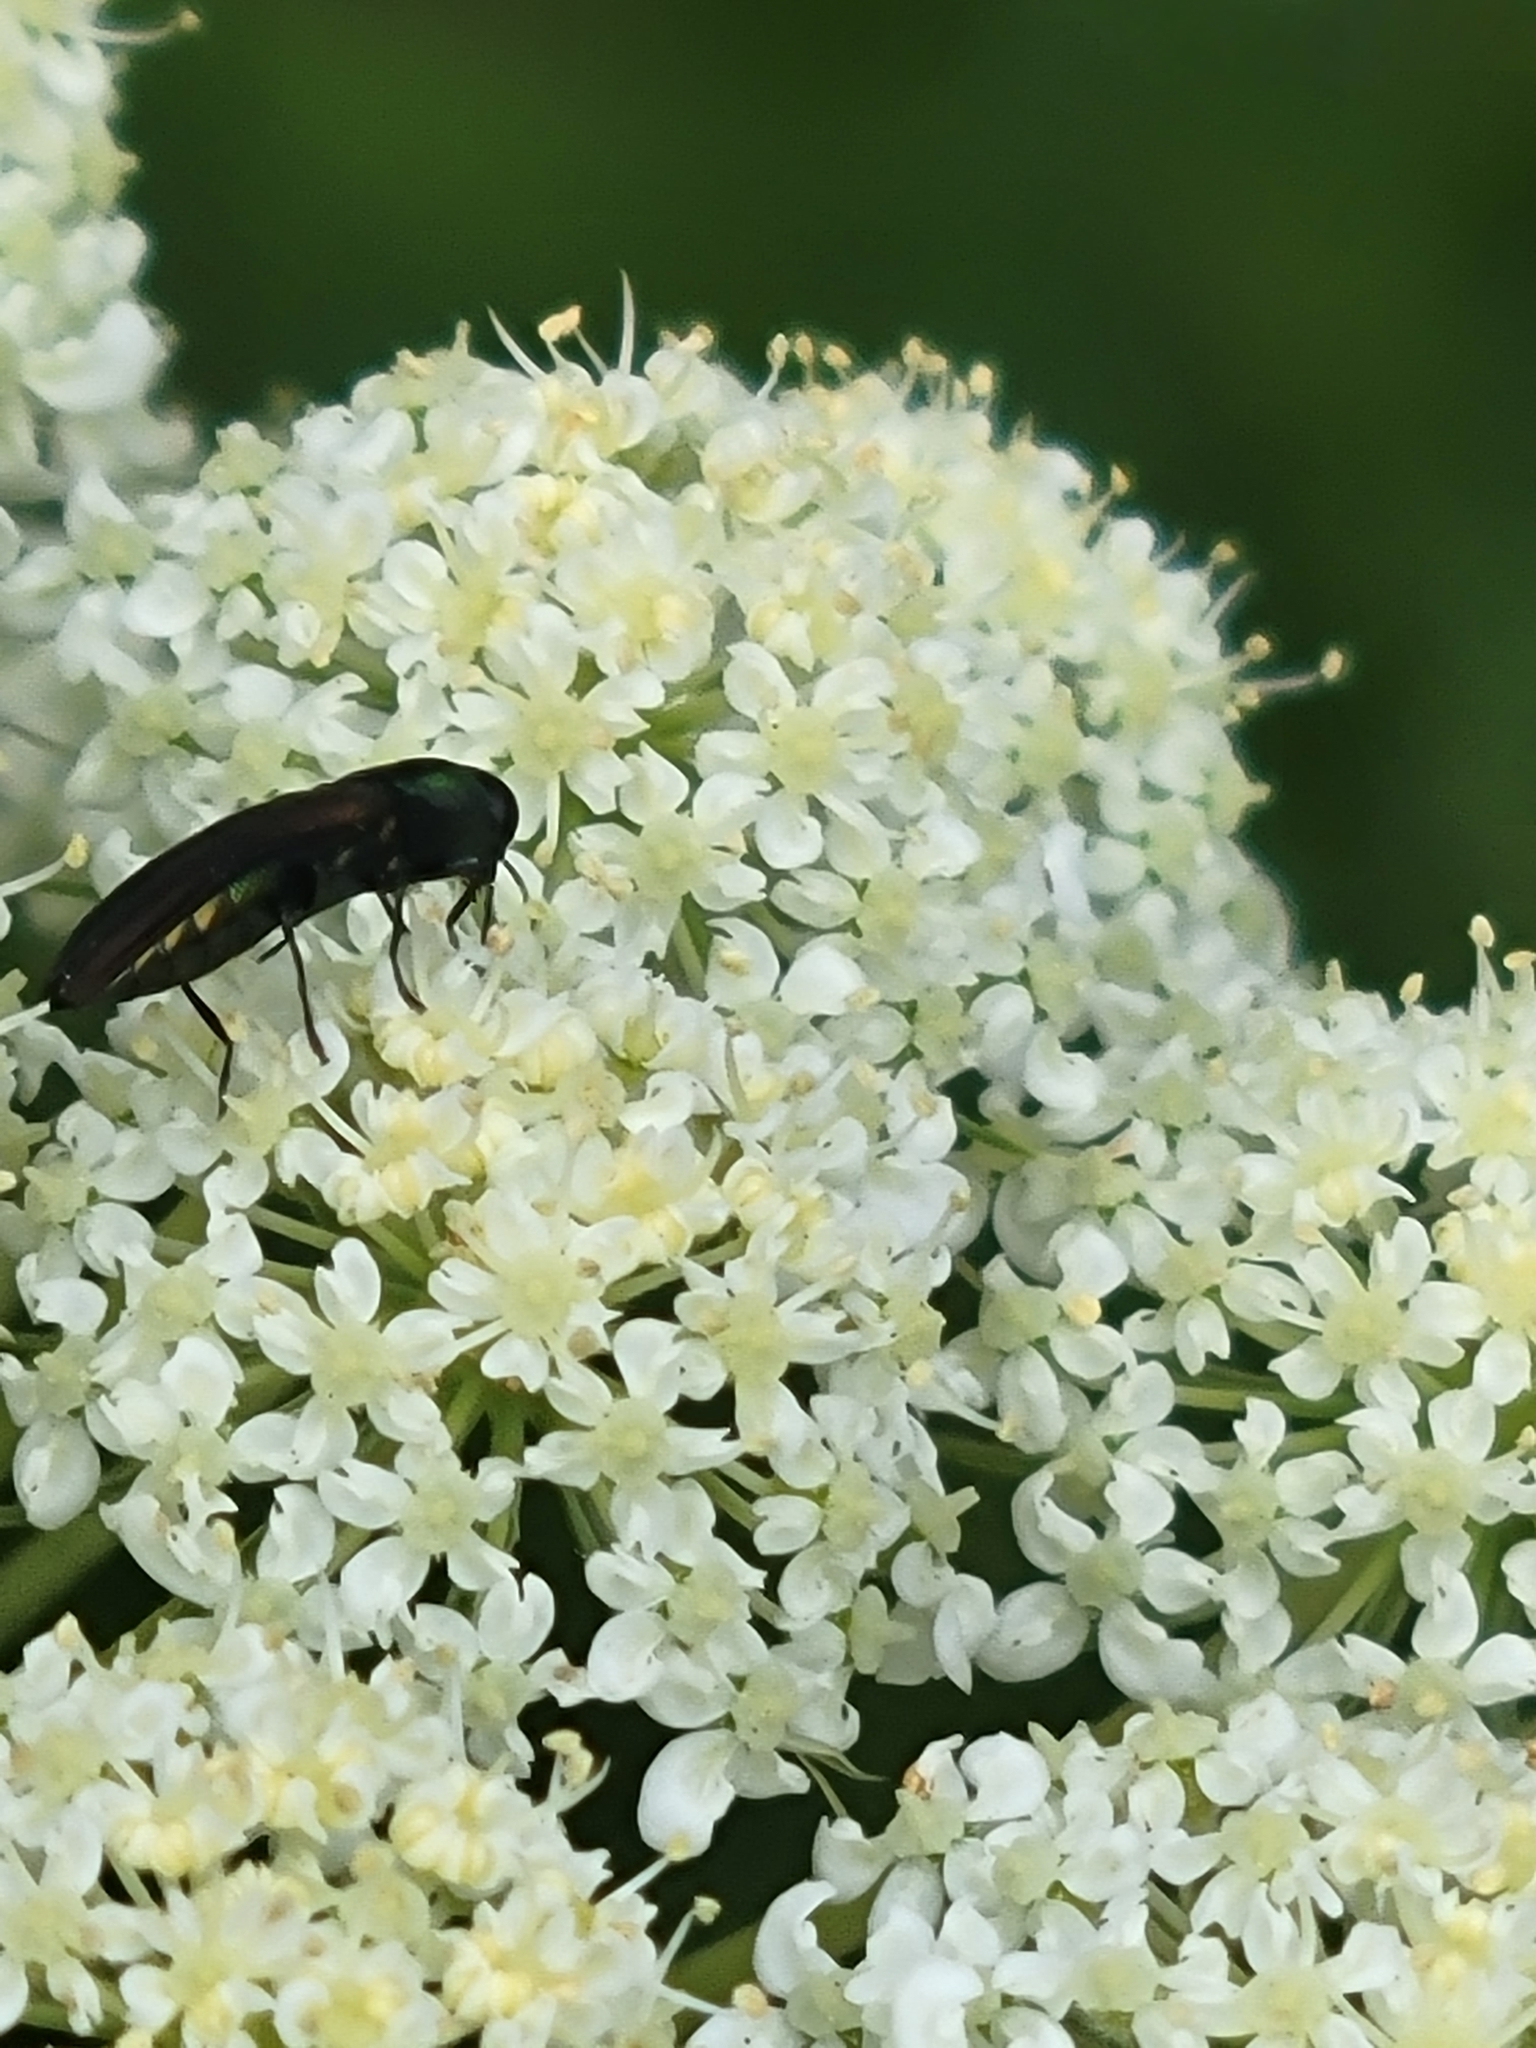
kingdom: Animalia
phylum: Arthropoda
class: Insecta
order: Coleoptera
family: Buprestidae
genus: Agrilaxia
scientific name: Agrilaxia flavimana
